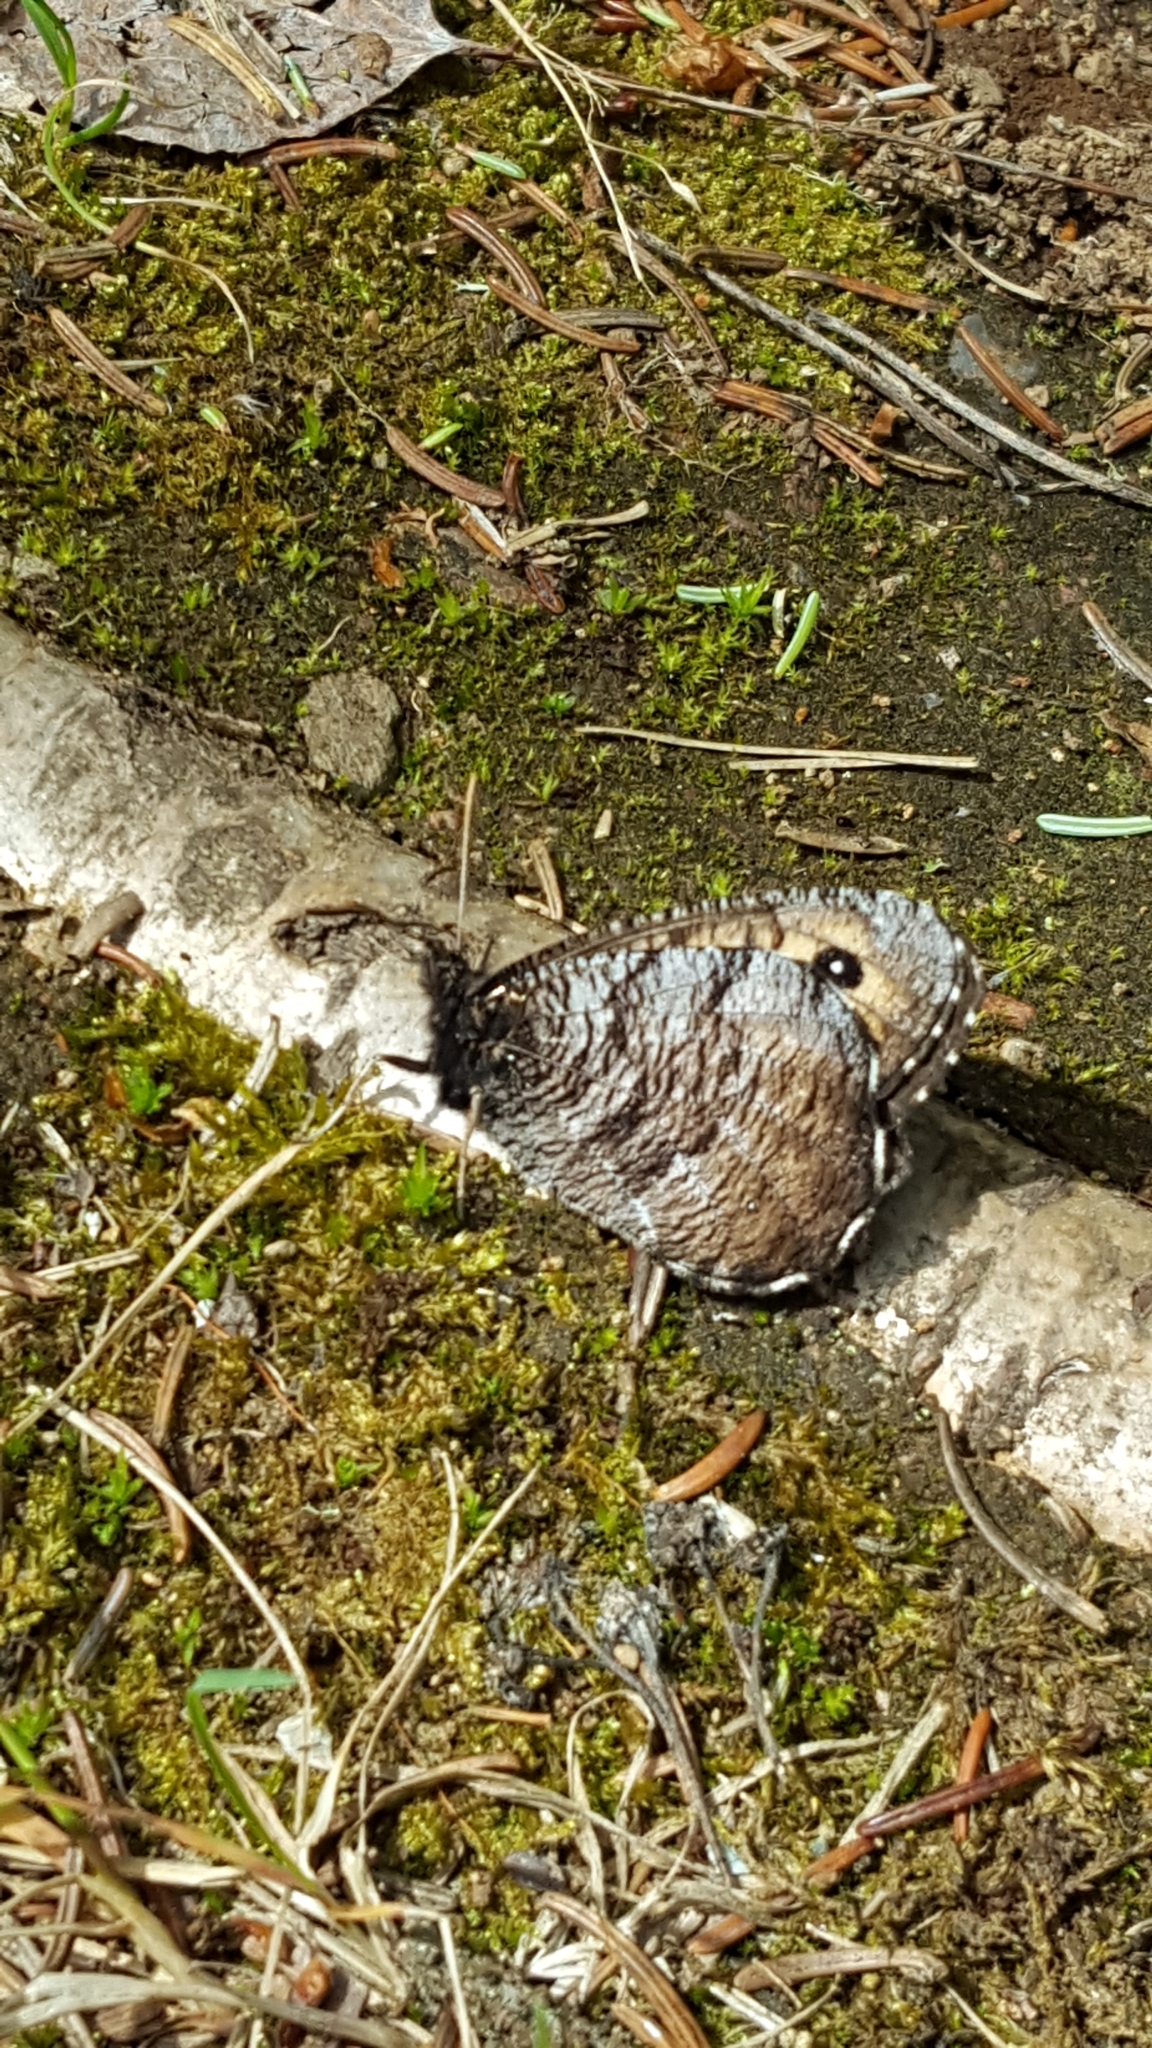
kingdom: Animalia
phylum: Arthropoda
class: Insecta
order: Lepidoptera
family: Nymphalidae
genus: Oeneis
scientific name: Oeneis macounii
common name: Macoun's arctic
